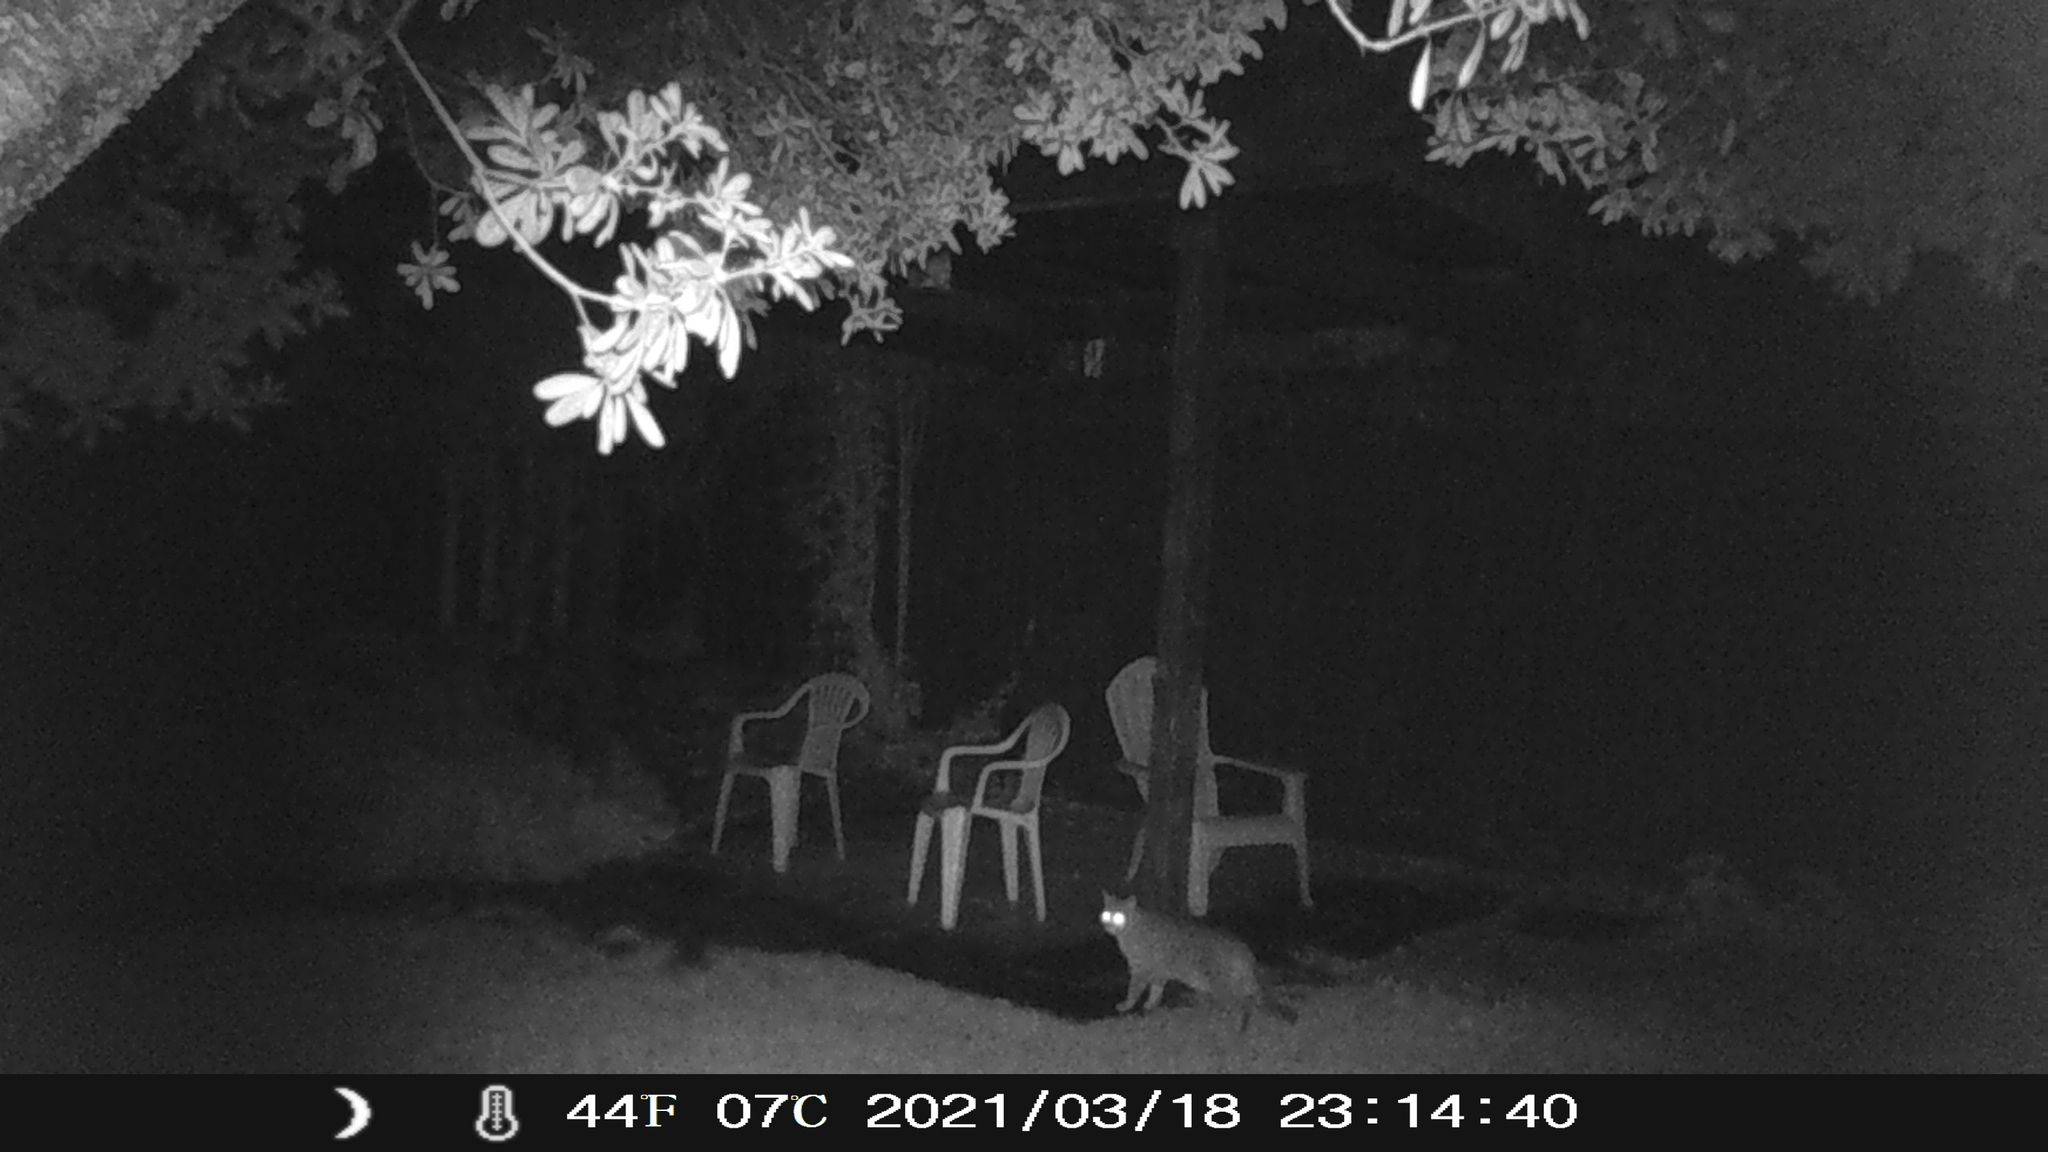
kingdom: Animalia
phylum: Chordata
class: Mammalia
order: Carnivora
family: Felidae
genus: Felis
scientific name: Felis catus
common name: Domestic cat
